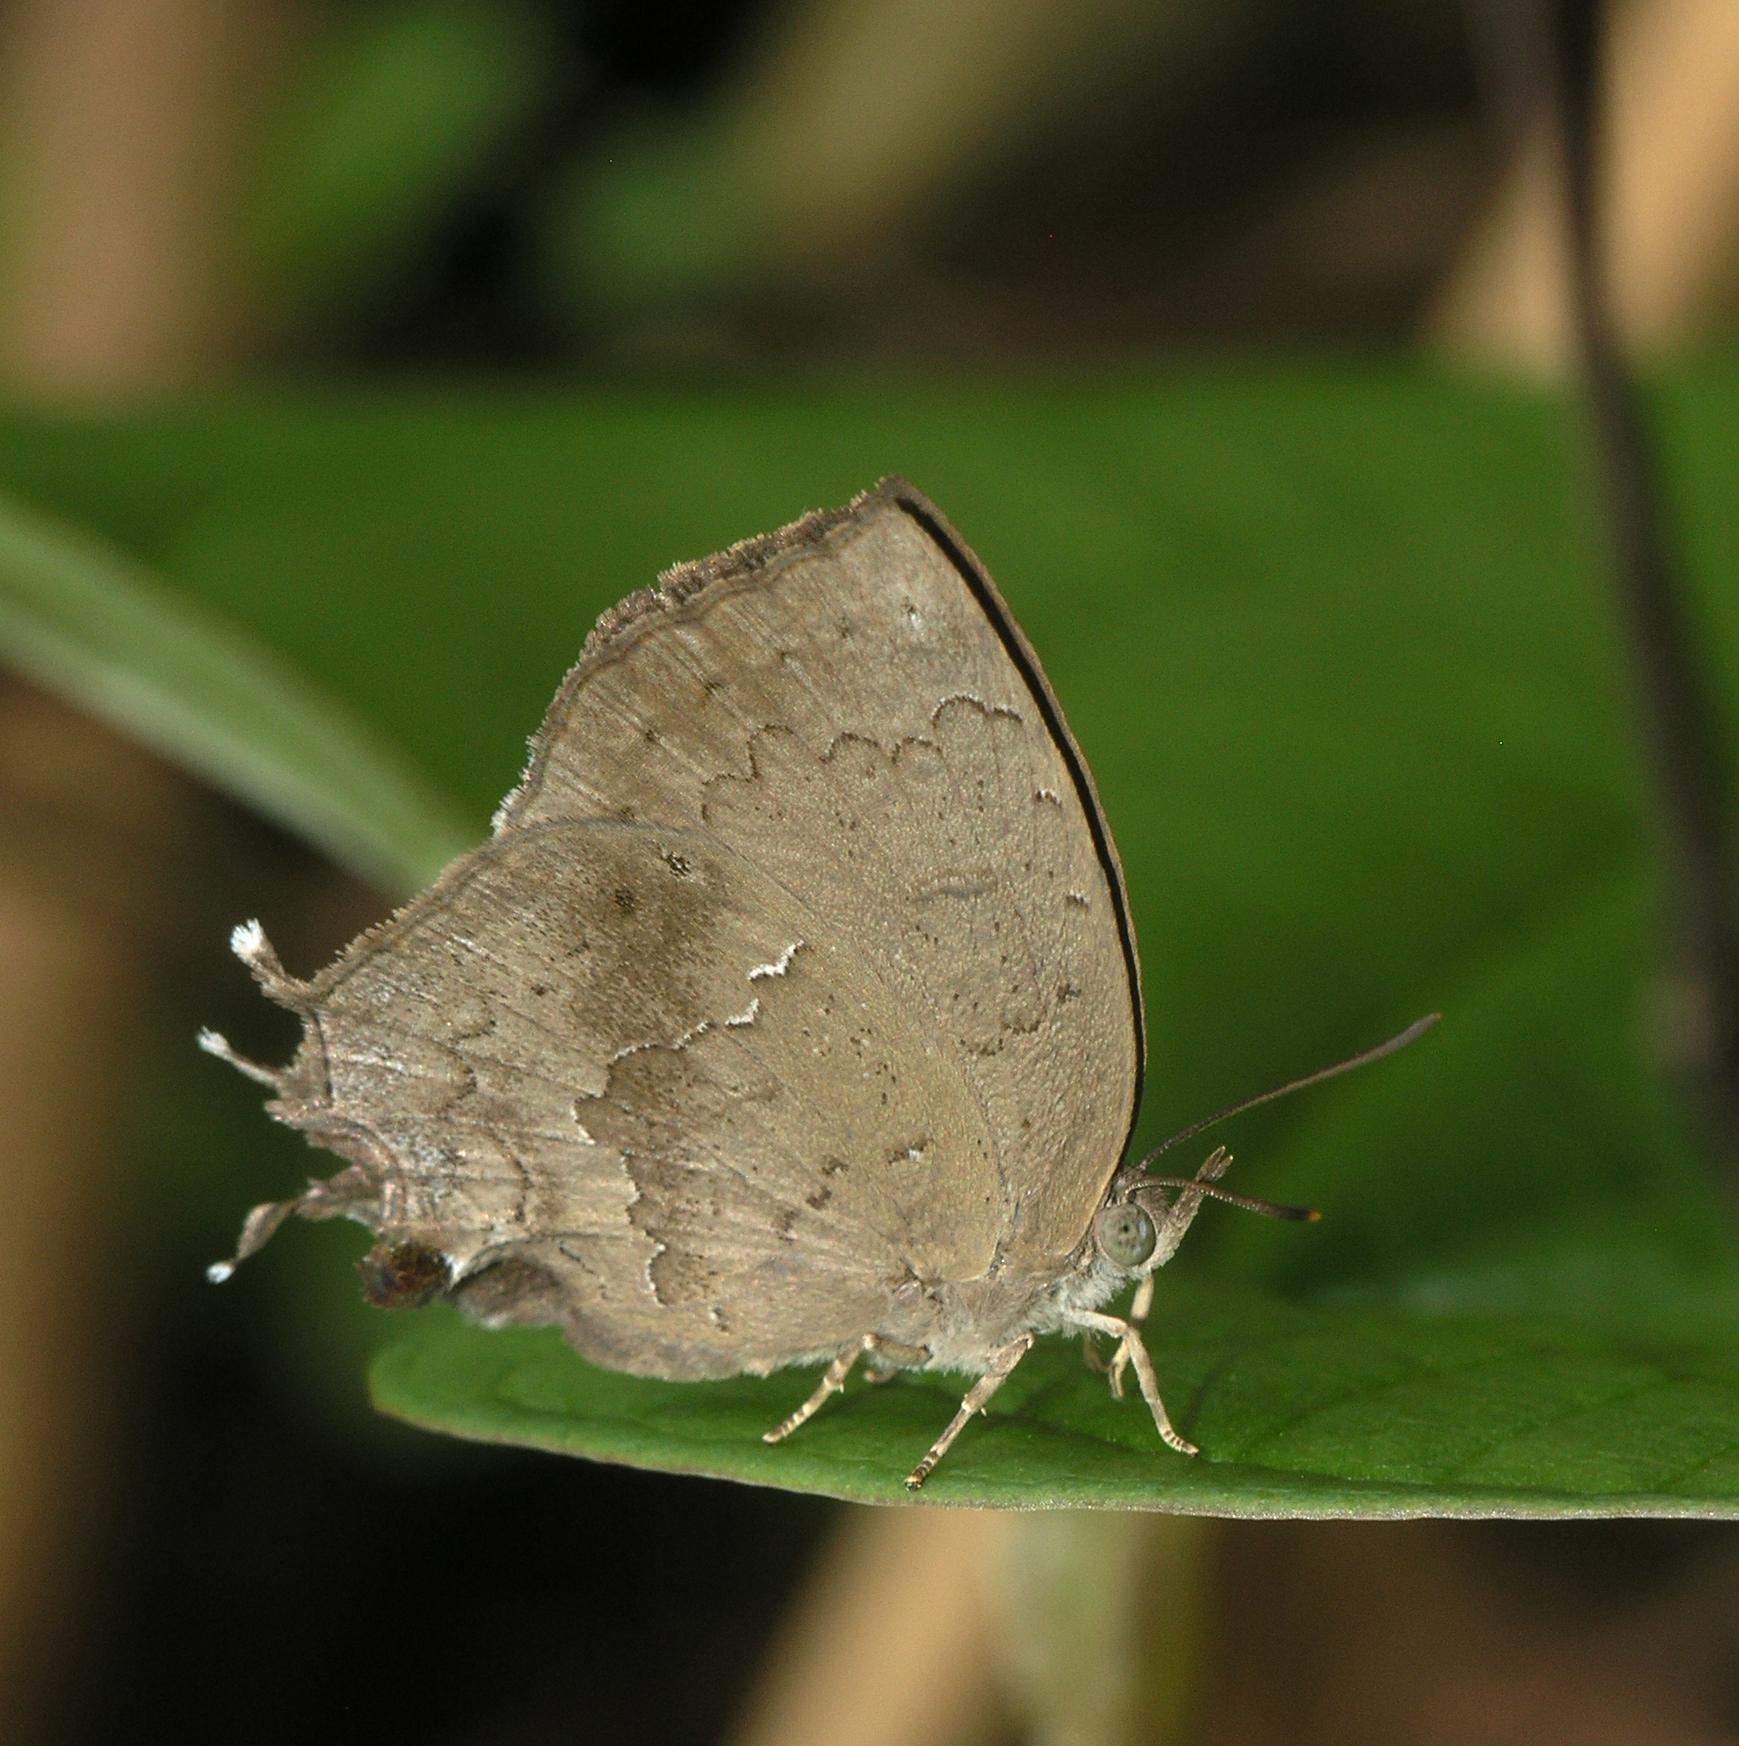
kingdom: Animalia
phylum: Arthropoda
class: Insecta
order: Lepidoptera
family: Lycaenidae
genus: Surendra
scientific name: Surendra quercetorum
